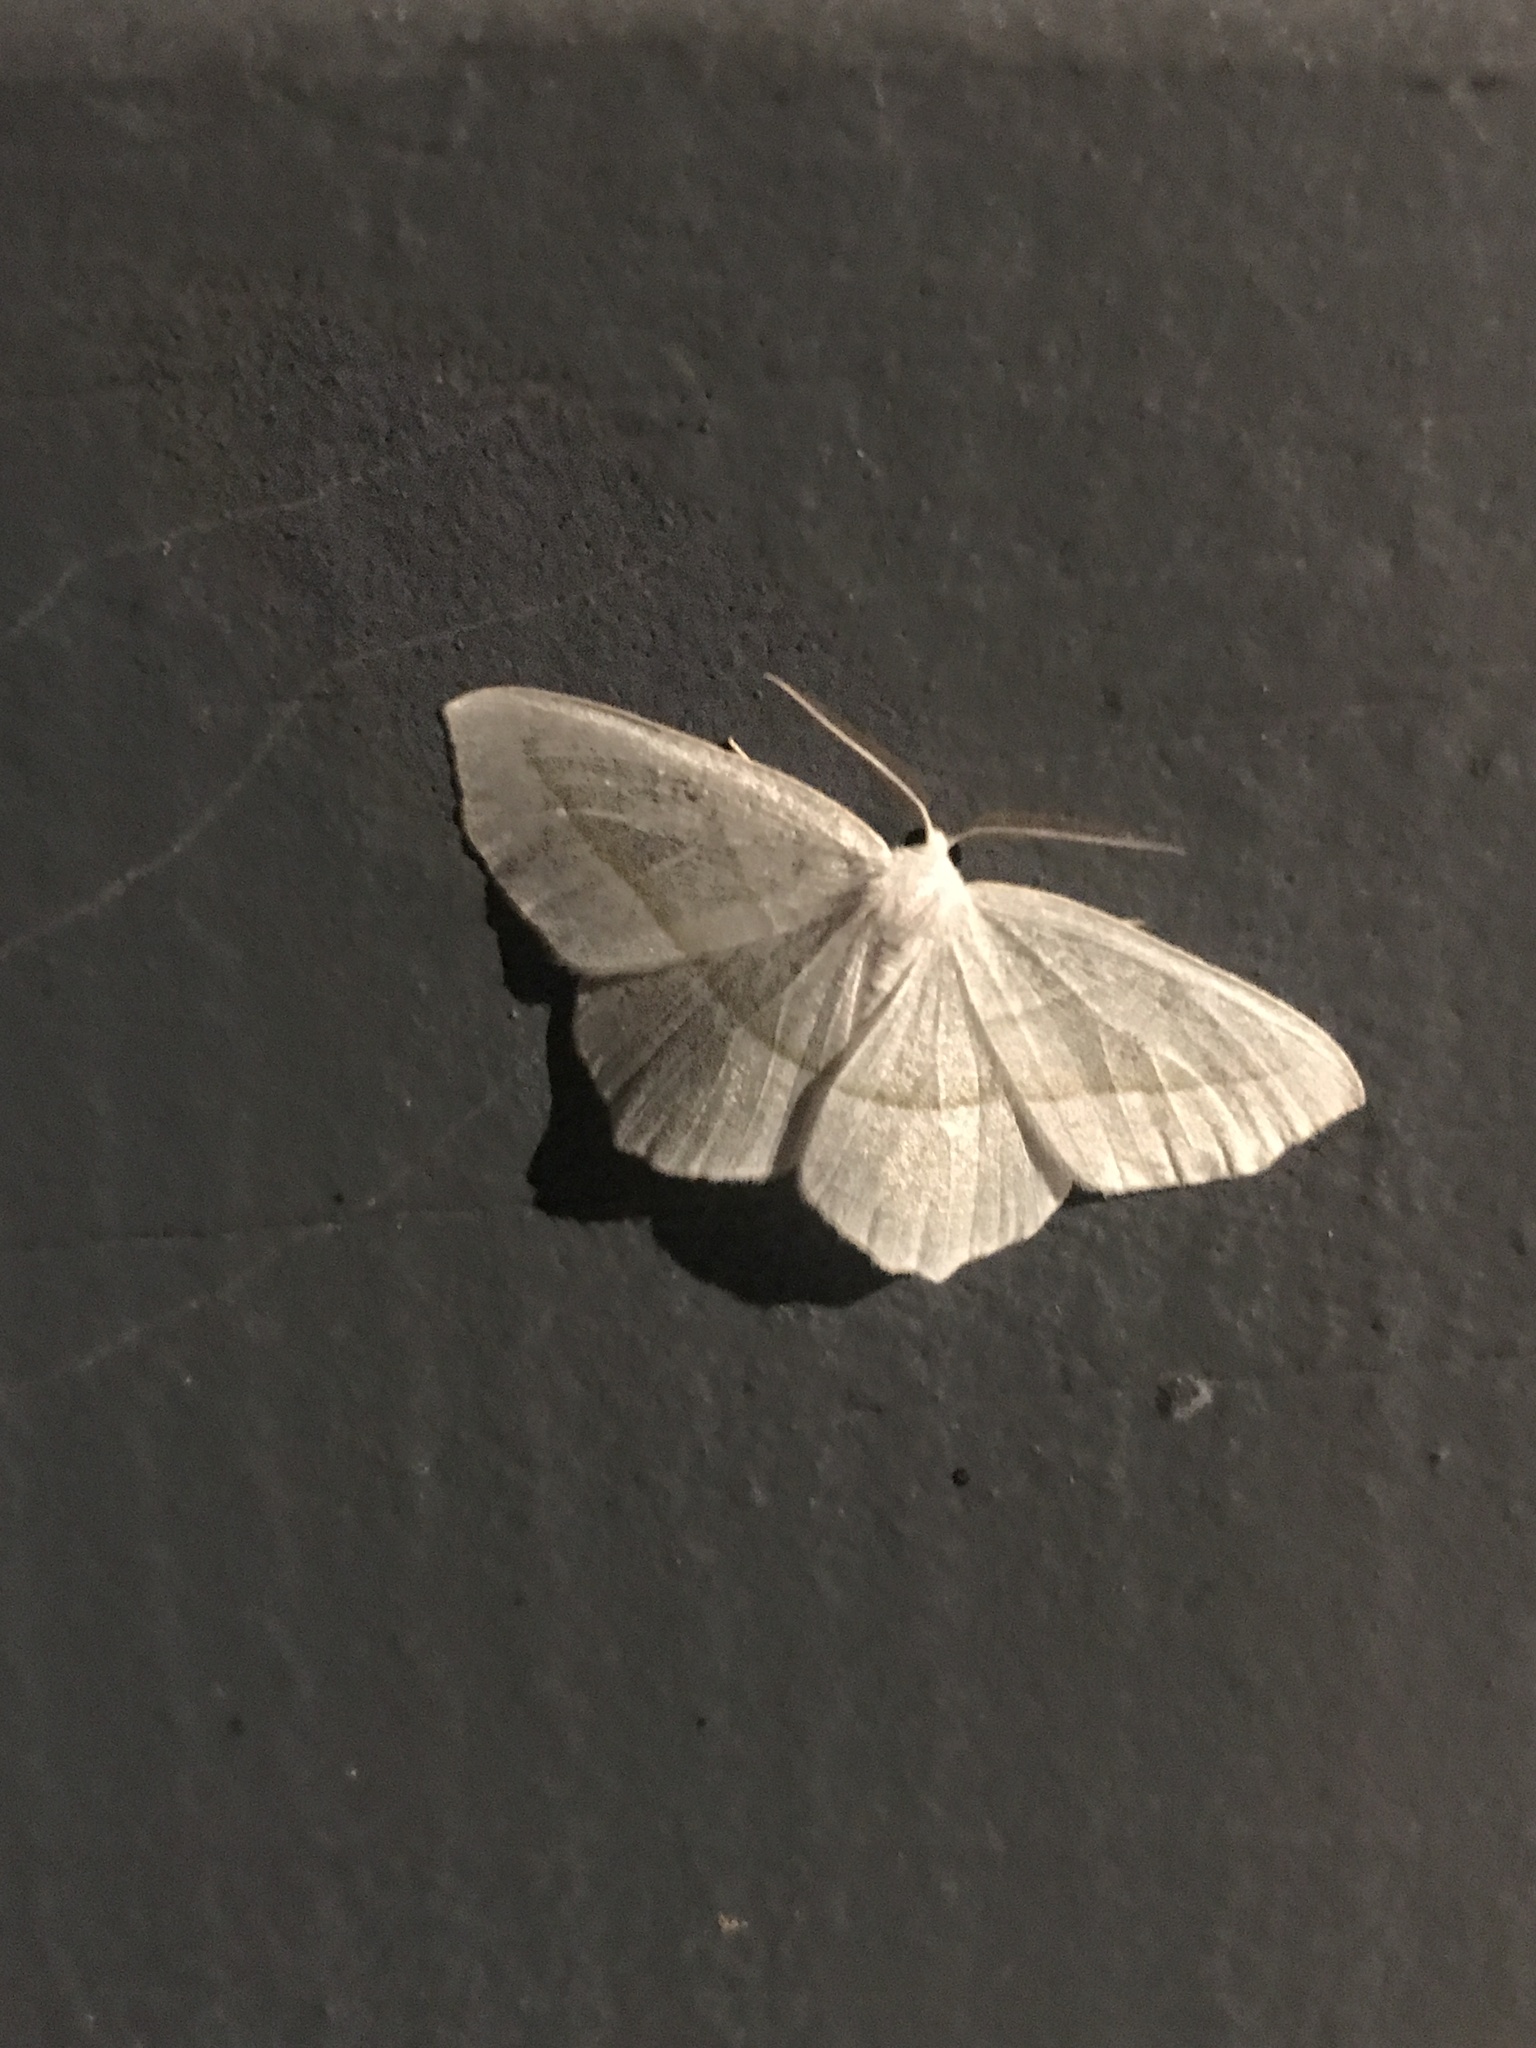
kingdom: Animalia
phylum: Arthropoda
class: Insecta
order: Lepidoptera
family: Geometridae
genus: Campaea
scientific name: Campaea perlata
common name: Fringed looper
